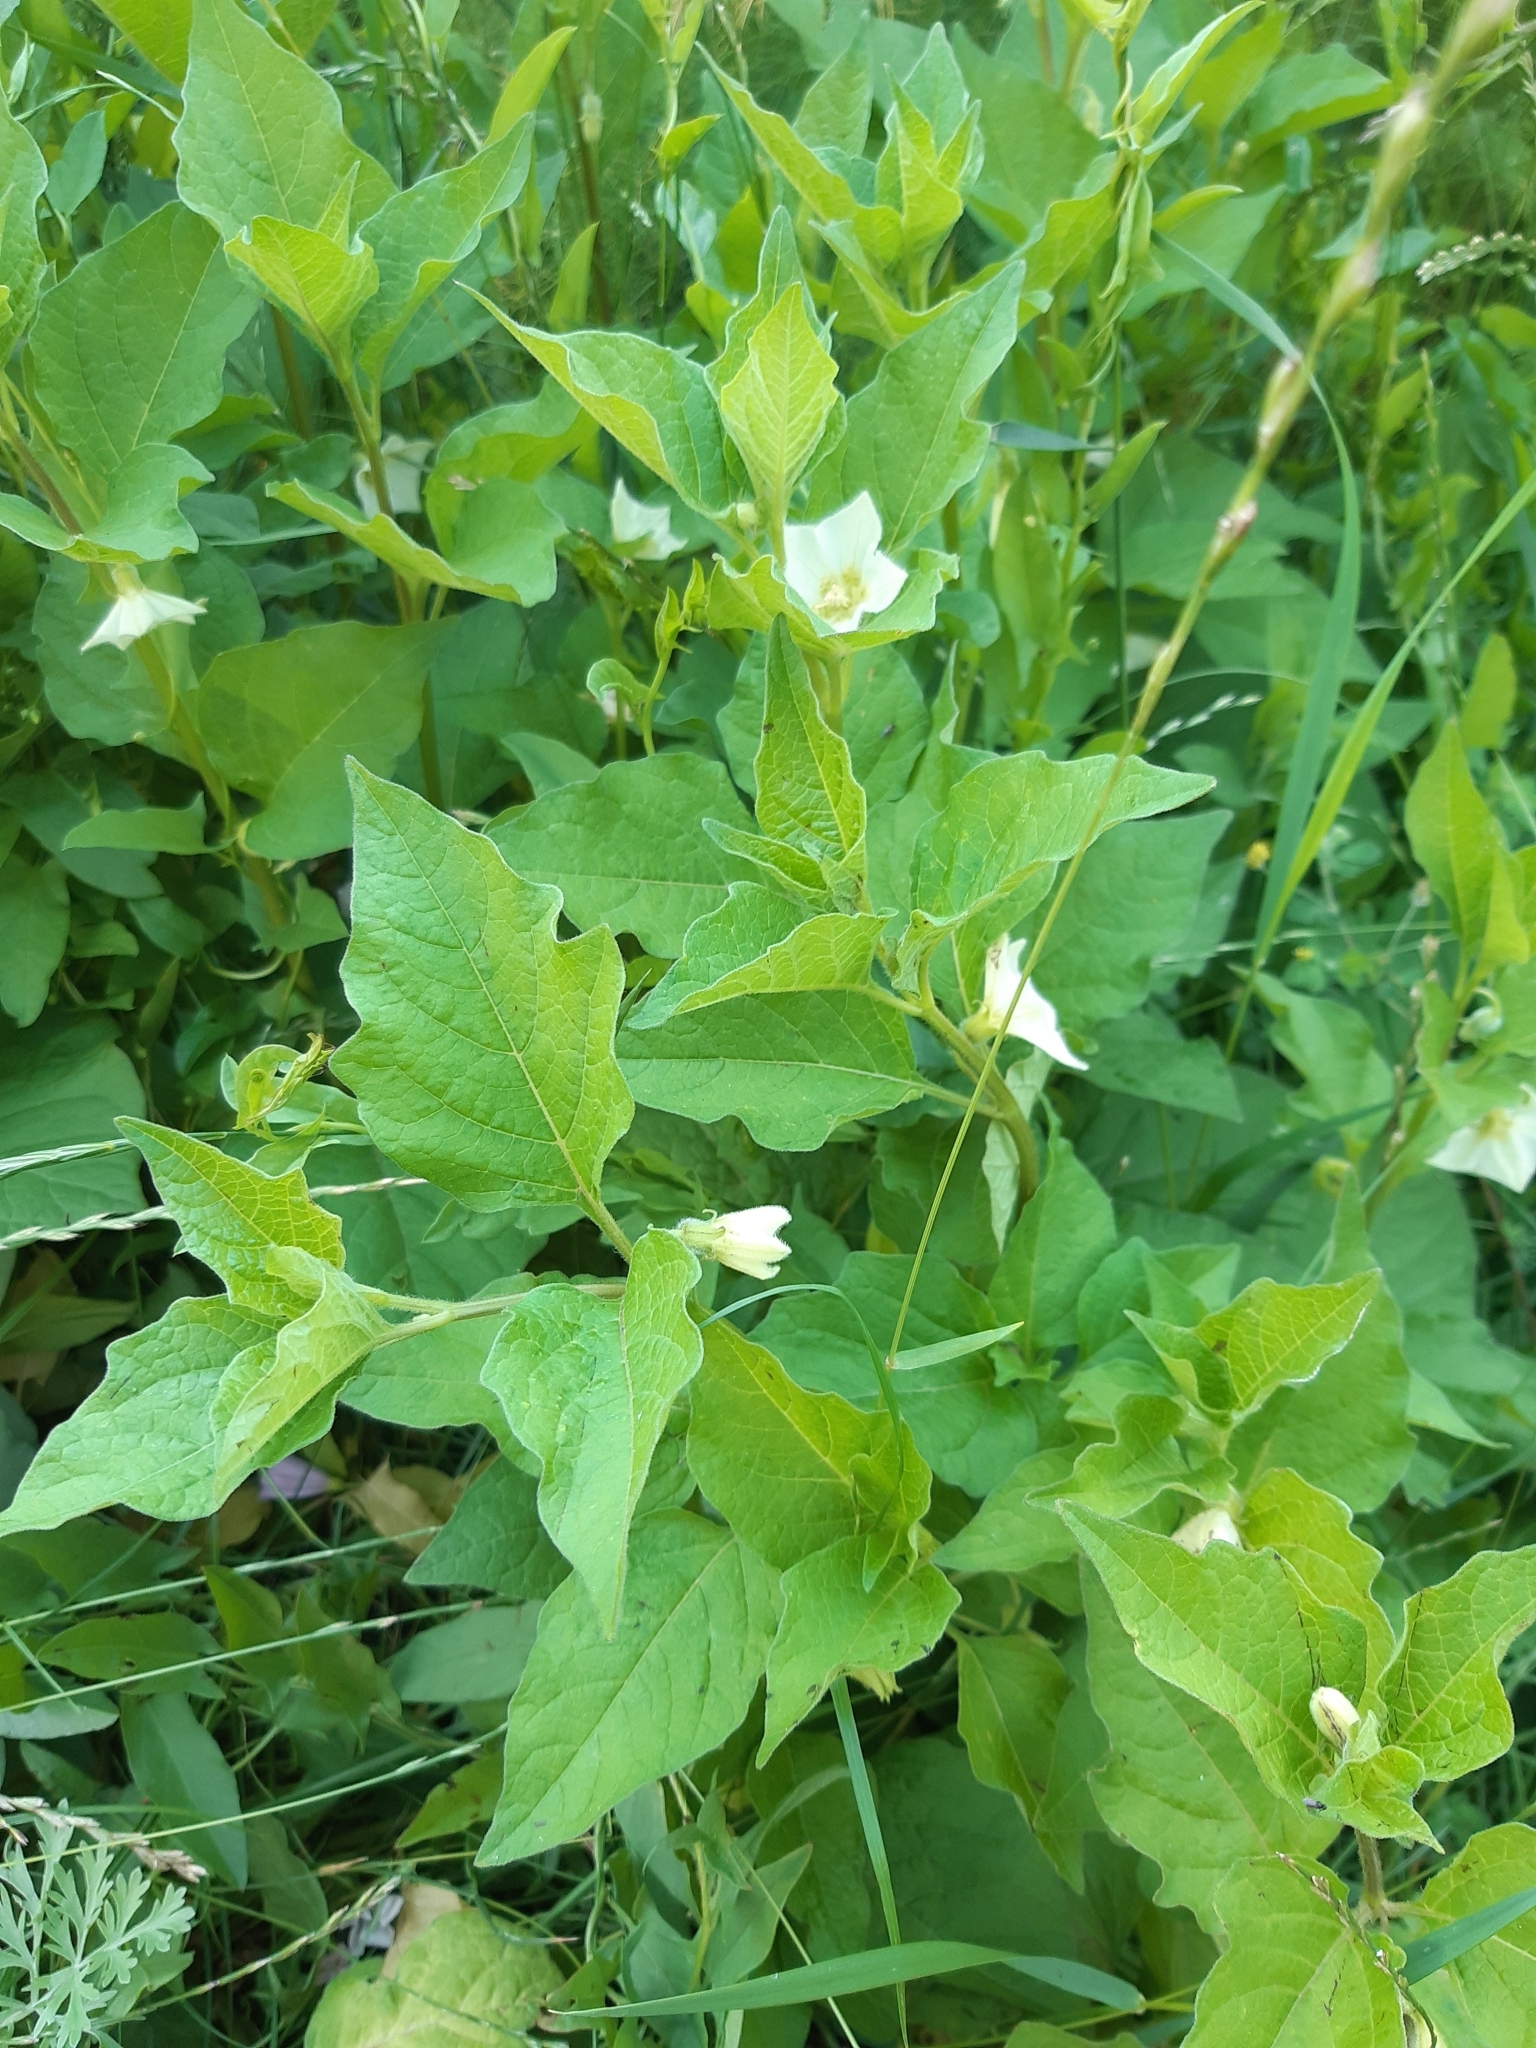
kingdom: Plantae
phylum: Tracheophyta
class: Magnoliopsida
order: Solanales
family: Solanaceae
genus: Alkekengi
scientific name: Alkekengi officinarum
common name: Japanese-lantern
